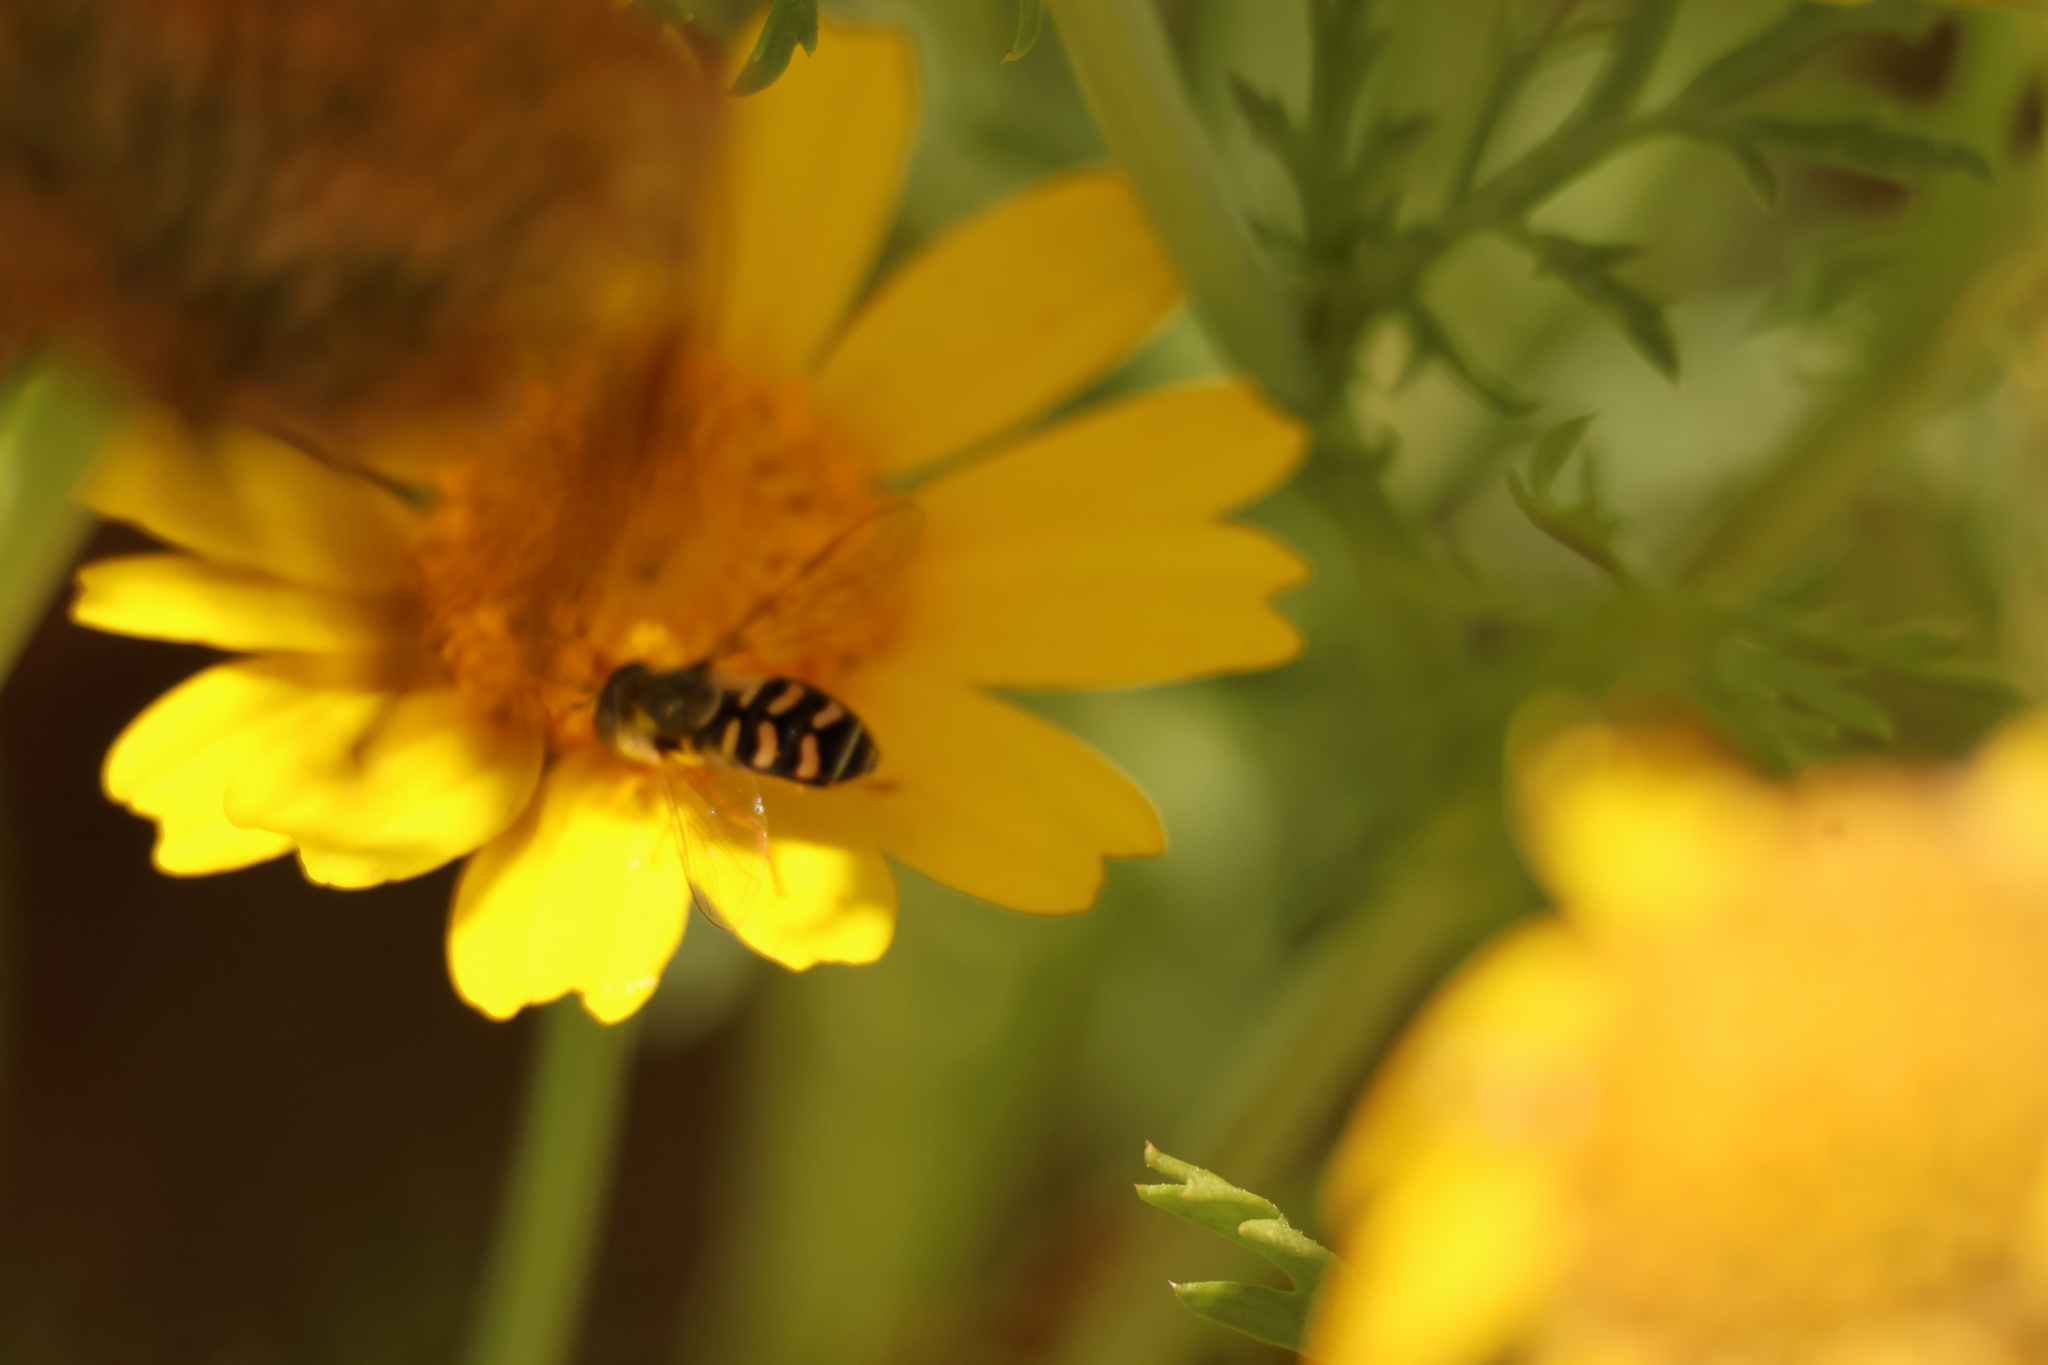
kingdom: Animalia
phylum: Arthropoda
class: Insecta
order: Diptera
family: Syrphidae
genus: Eupeodes
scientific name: Eupeodes volucris
